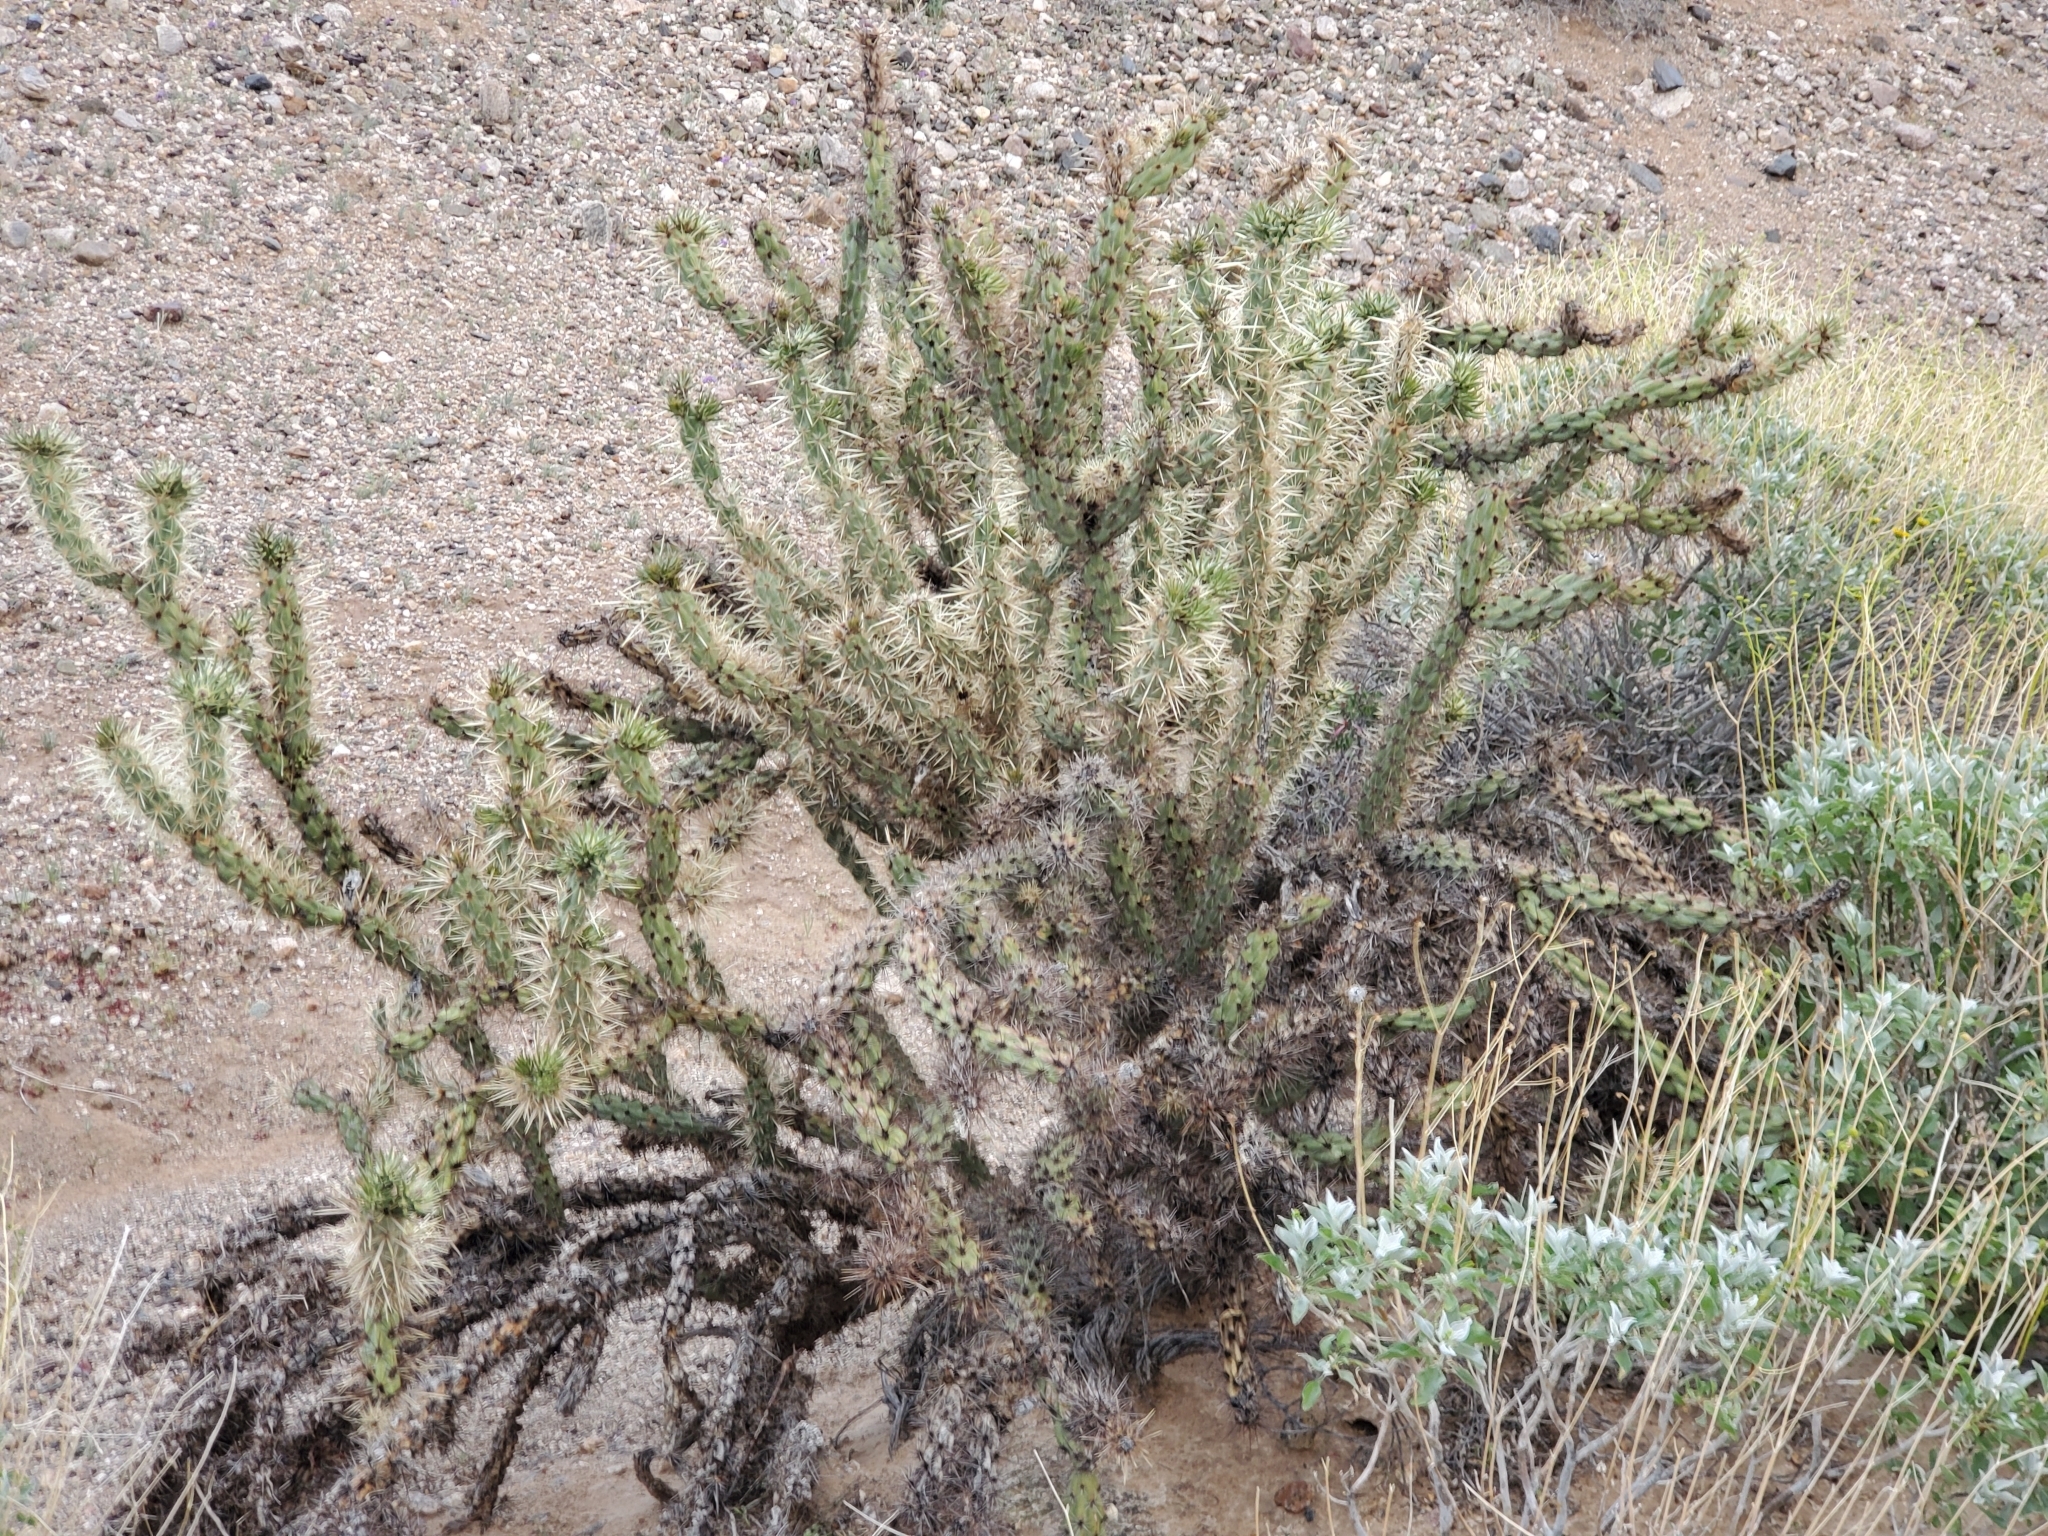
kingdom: Plantae
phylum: Tracheophyta
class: Magnoliopsida
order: Caryophyllales
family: Cactaceae
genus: Cylindropuntia
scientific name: Cylindropuntia acanthocarpa
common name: Buckhorn cholla
